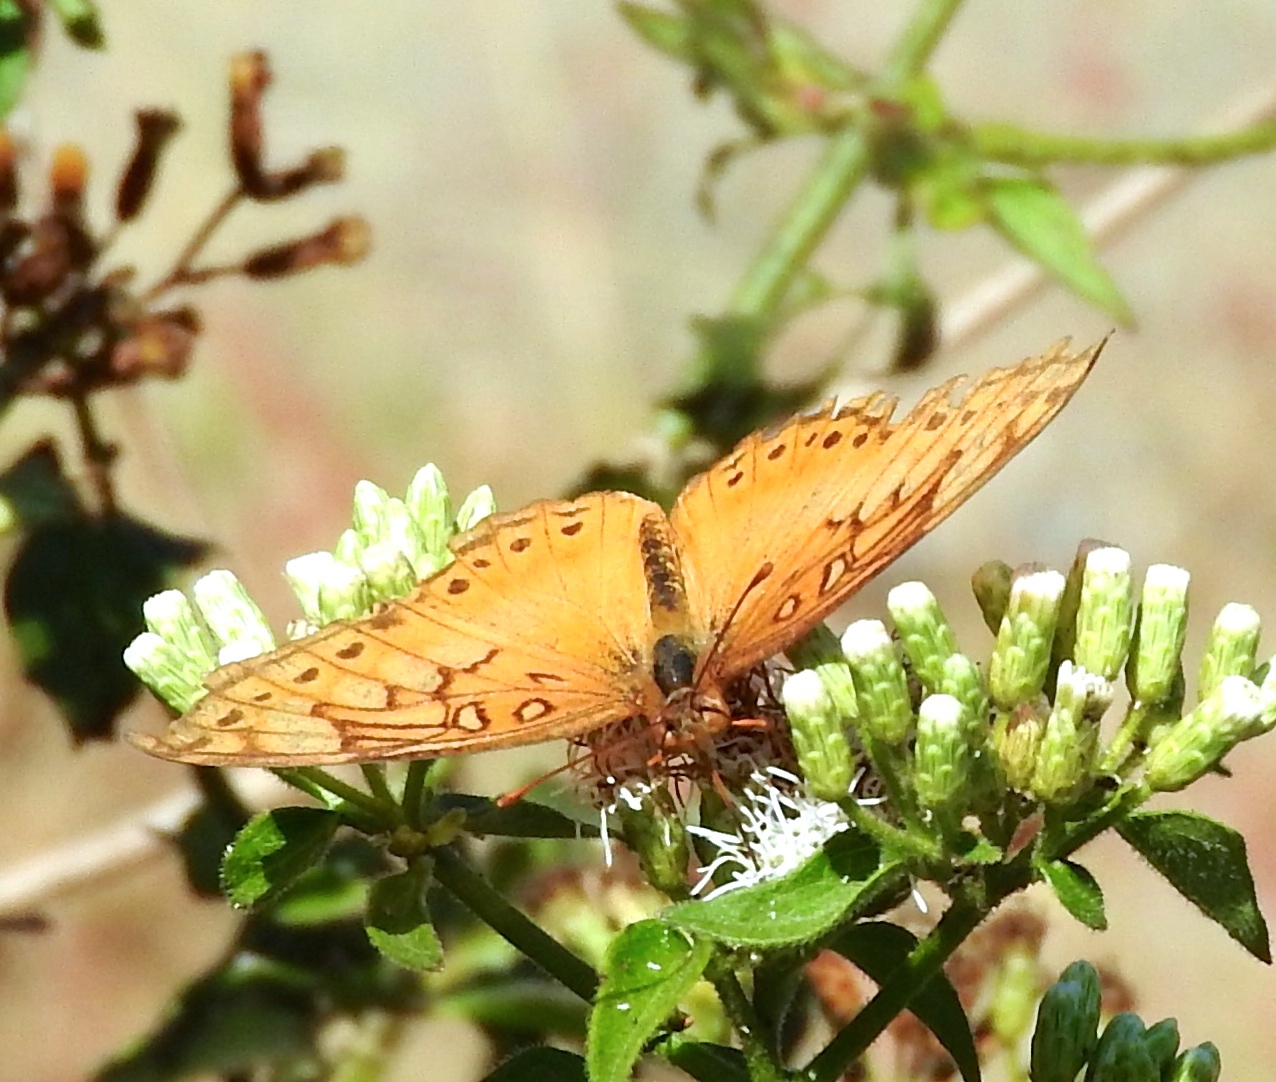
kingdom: Animalia
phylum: Arthropoda
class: Insecta
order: Lepidoptera
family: Nymphalidae
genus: Euptoieta
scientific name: Euptoieta hegesia
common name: Mexican fritillary
